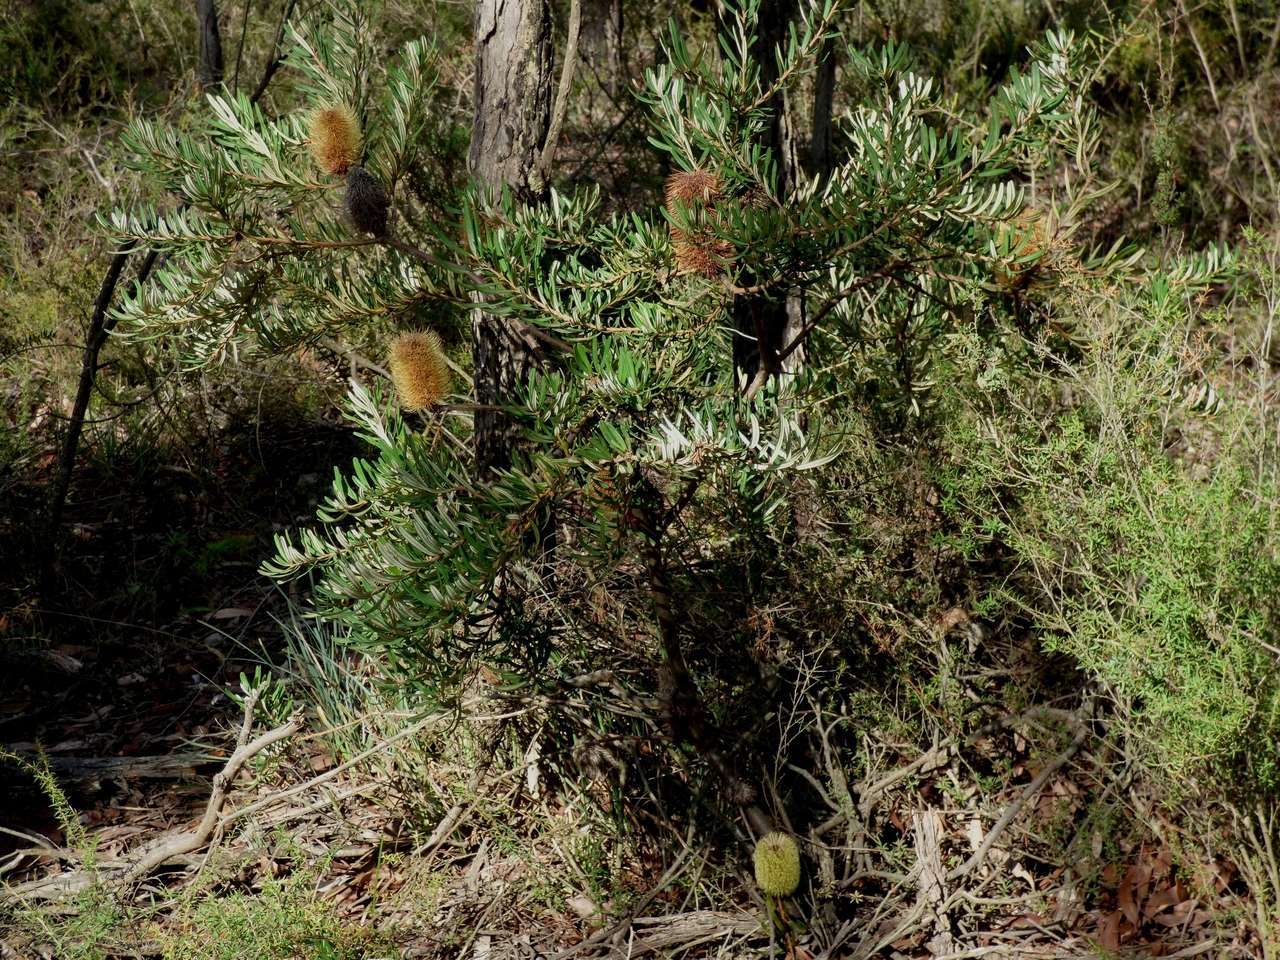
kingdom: Plantae
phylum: Tracheophyta
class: Magnoliopsida
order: Proteales
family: Proteaceae
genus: Banksia
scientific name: Banksia marginata
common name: Silver banksia
